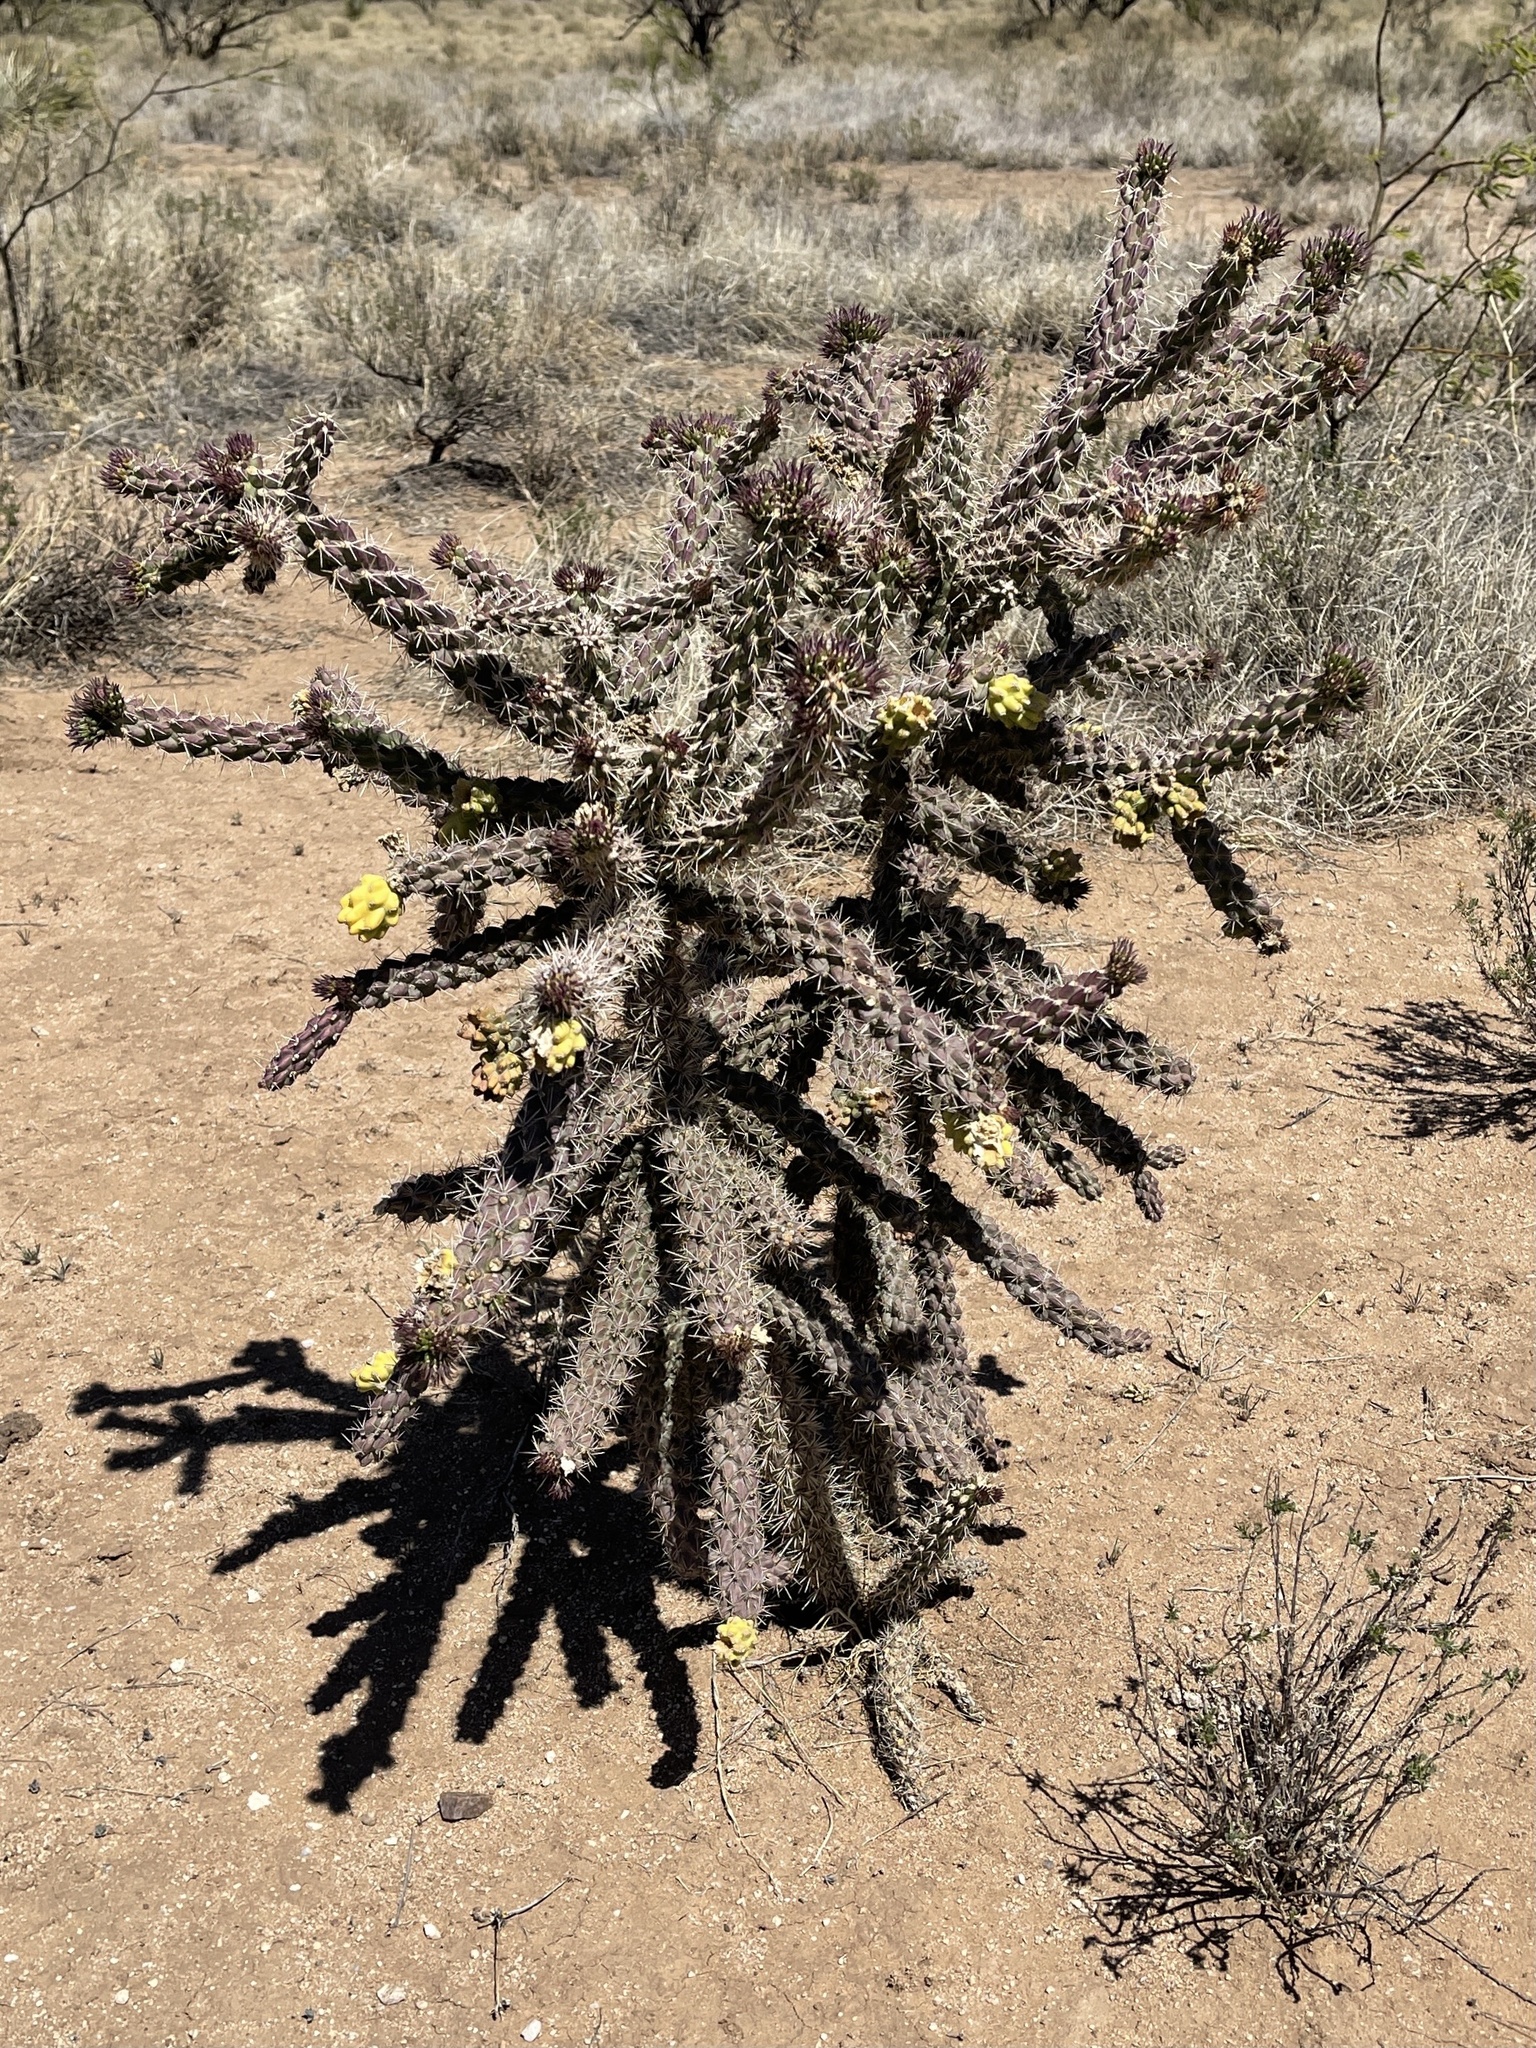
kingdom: Plantae
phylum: Tracheophyta
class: Magnoliopsida
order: Caryophyllales
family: Cactaceae
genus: Cylindropuntia
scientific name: Cylindropuntia imbricata
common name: Candelabrum cactus
